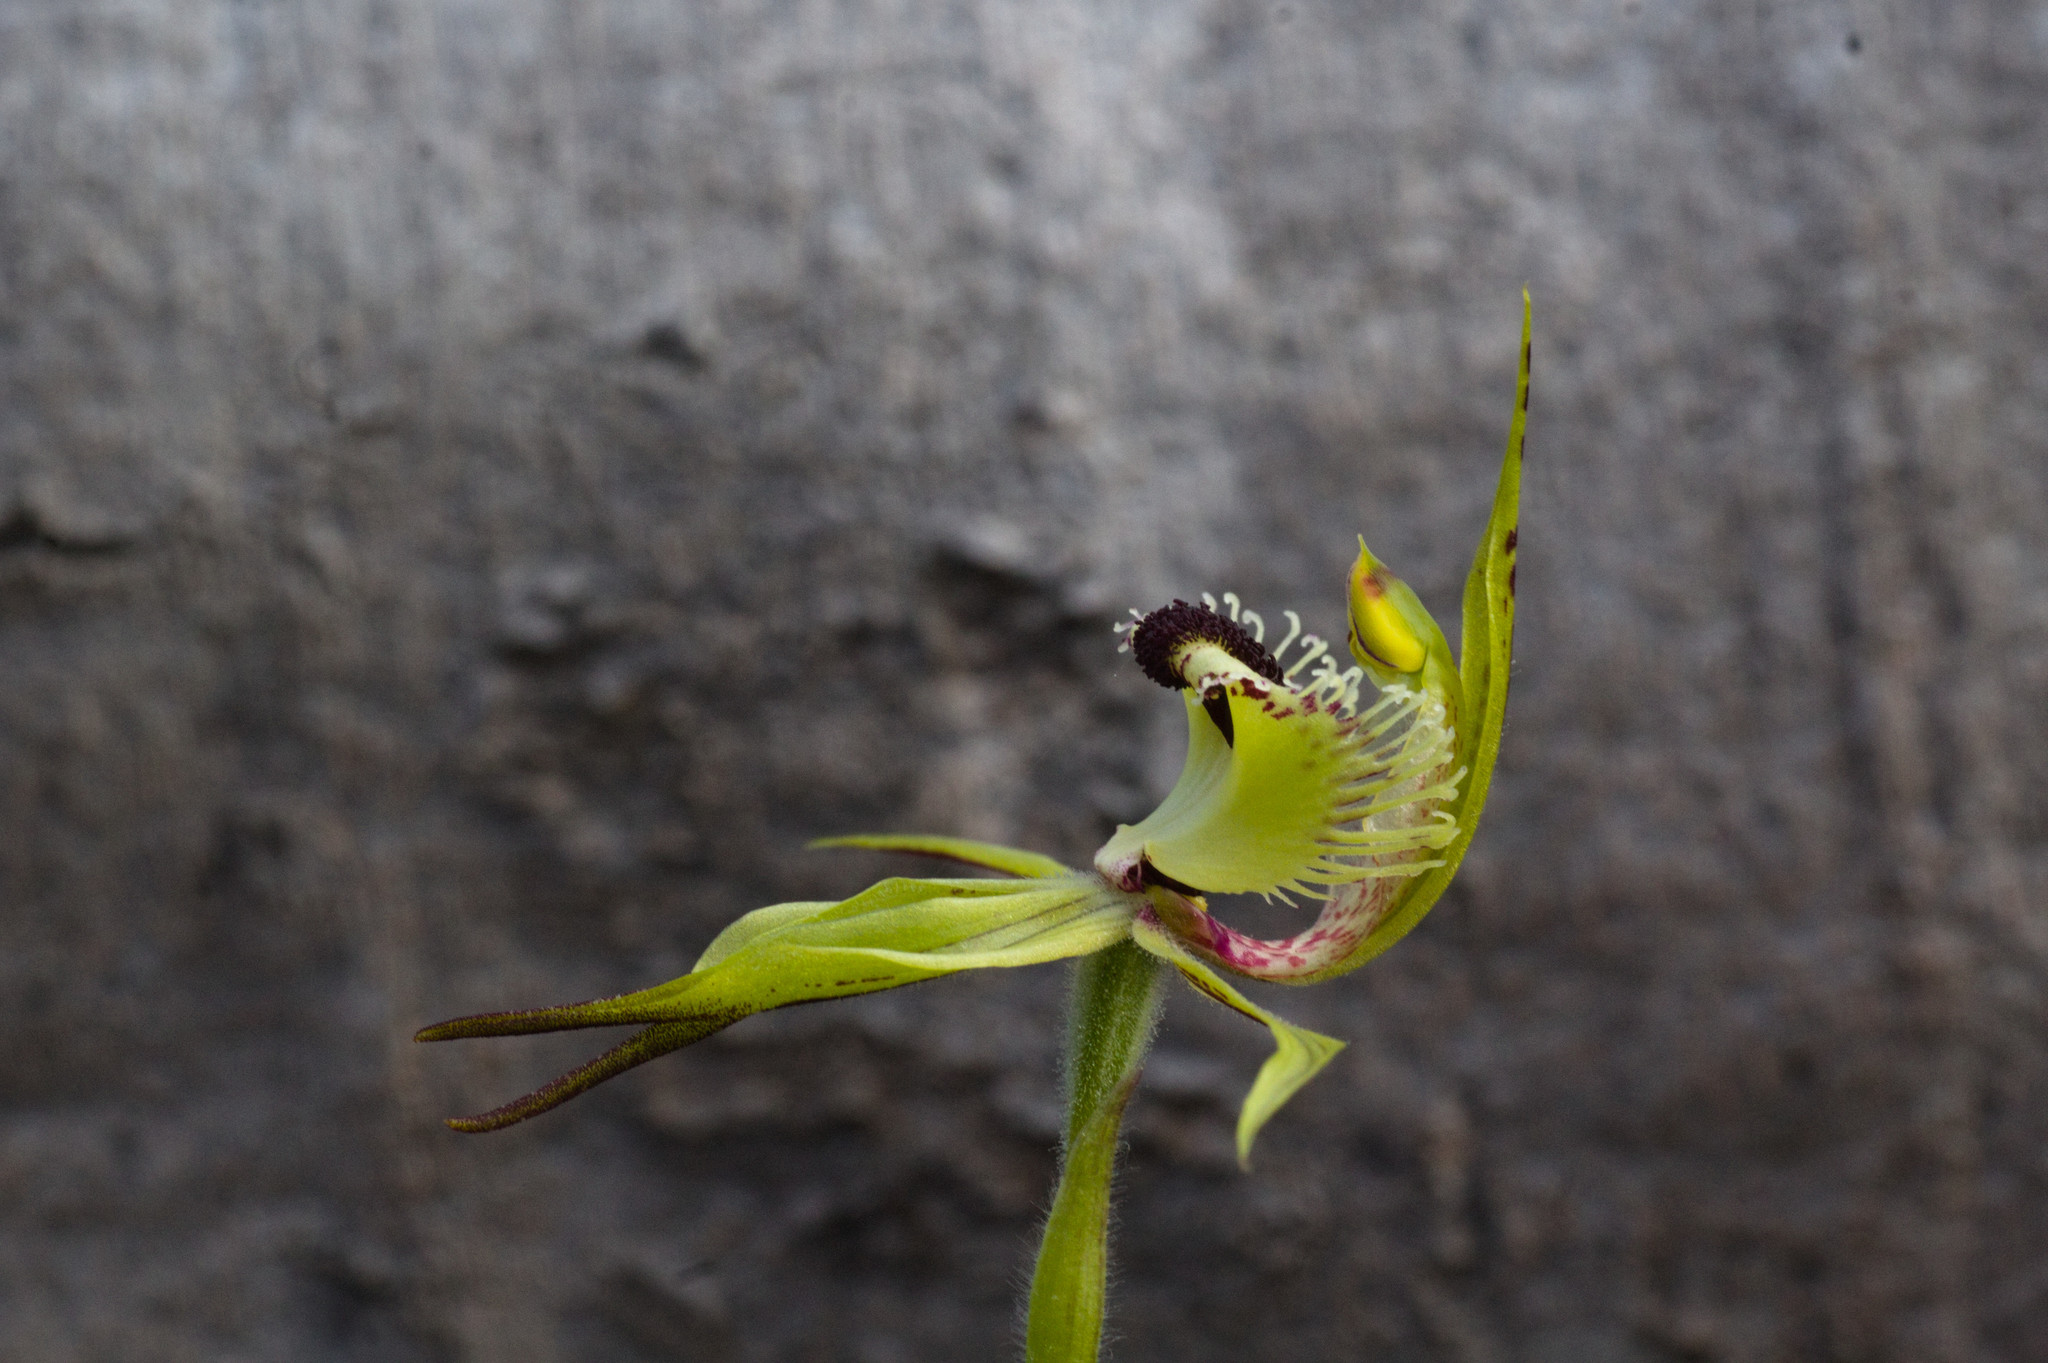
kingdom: Plantae
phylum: Tracheophyta
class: Liliopsida
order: Asparagales
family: Orchidaceae
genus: Caladenia
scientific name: Caladenia crebra
